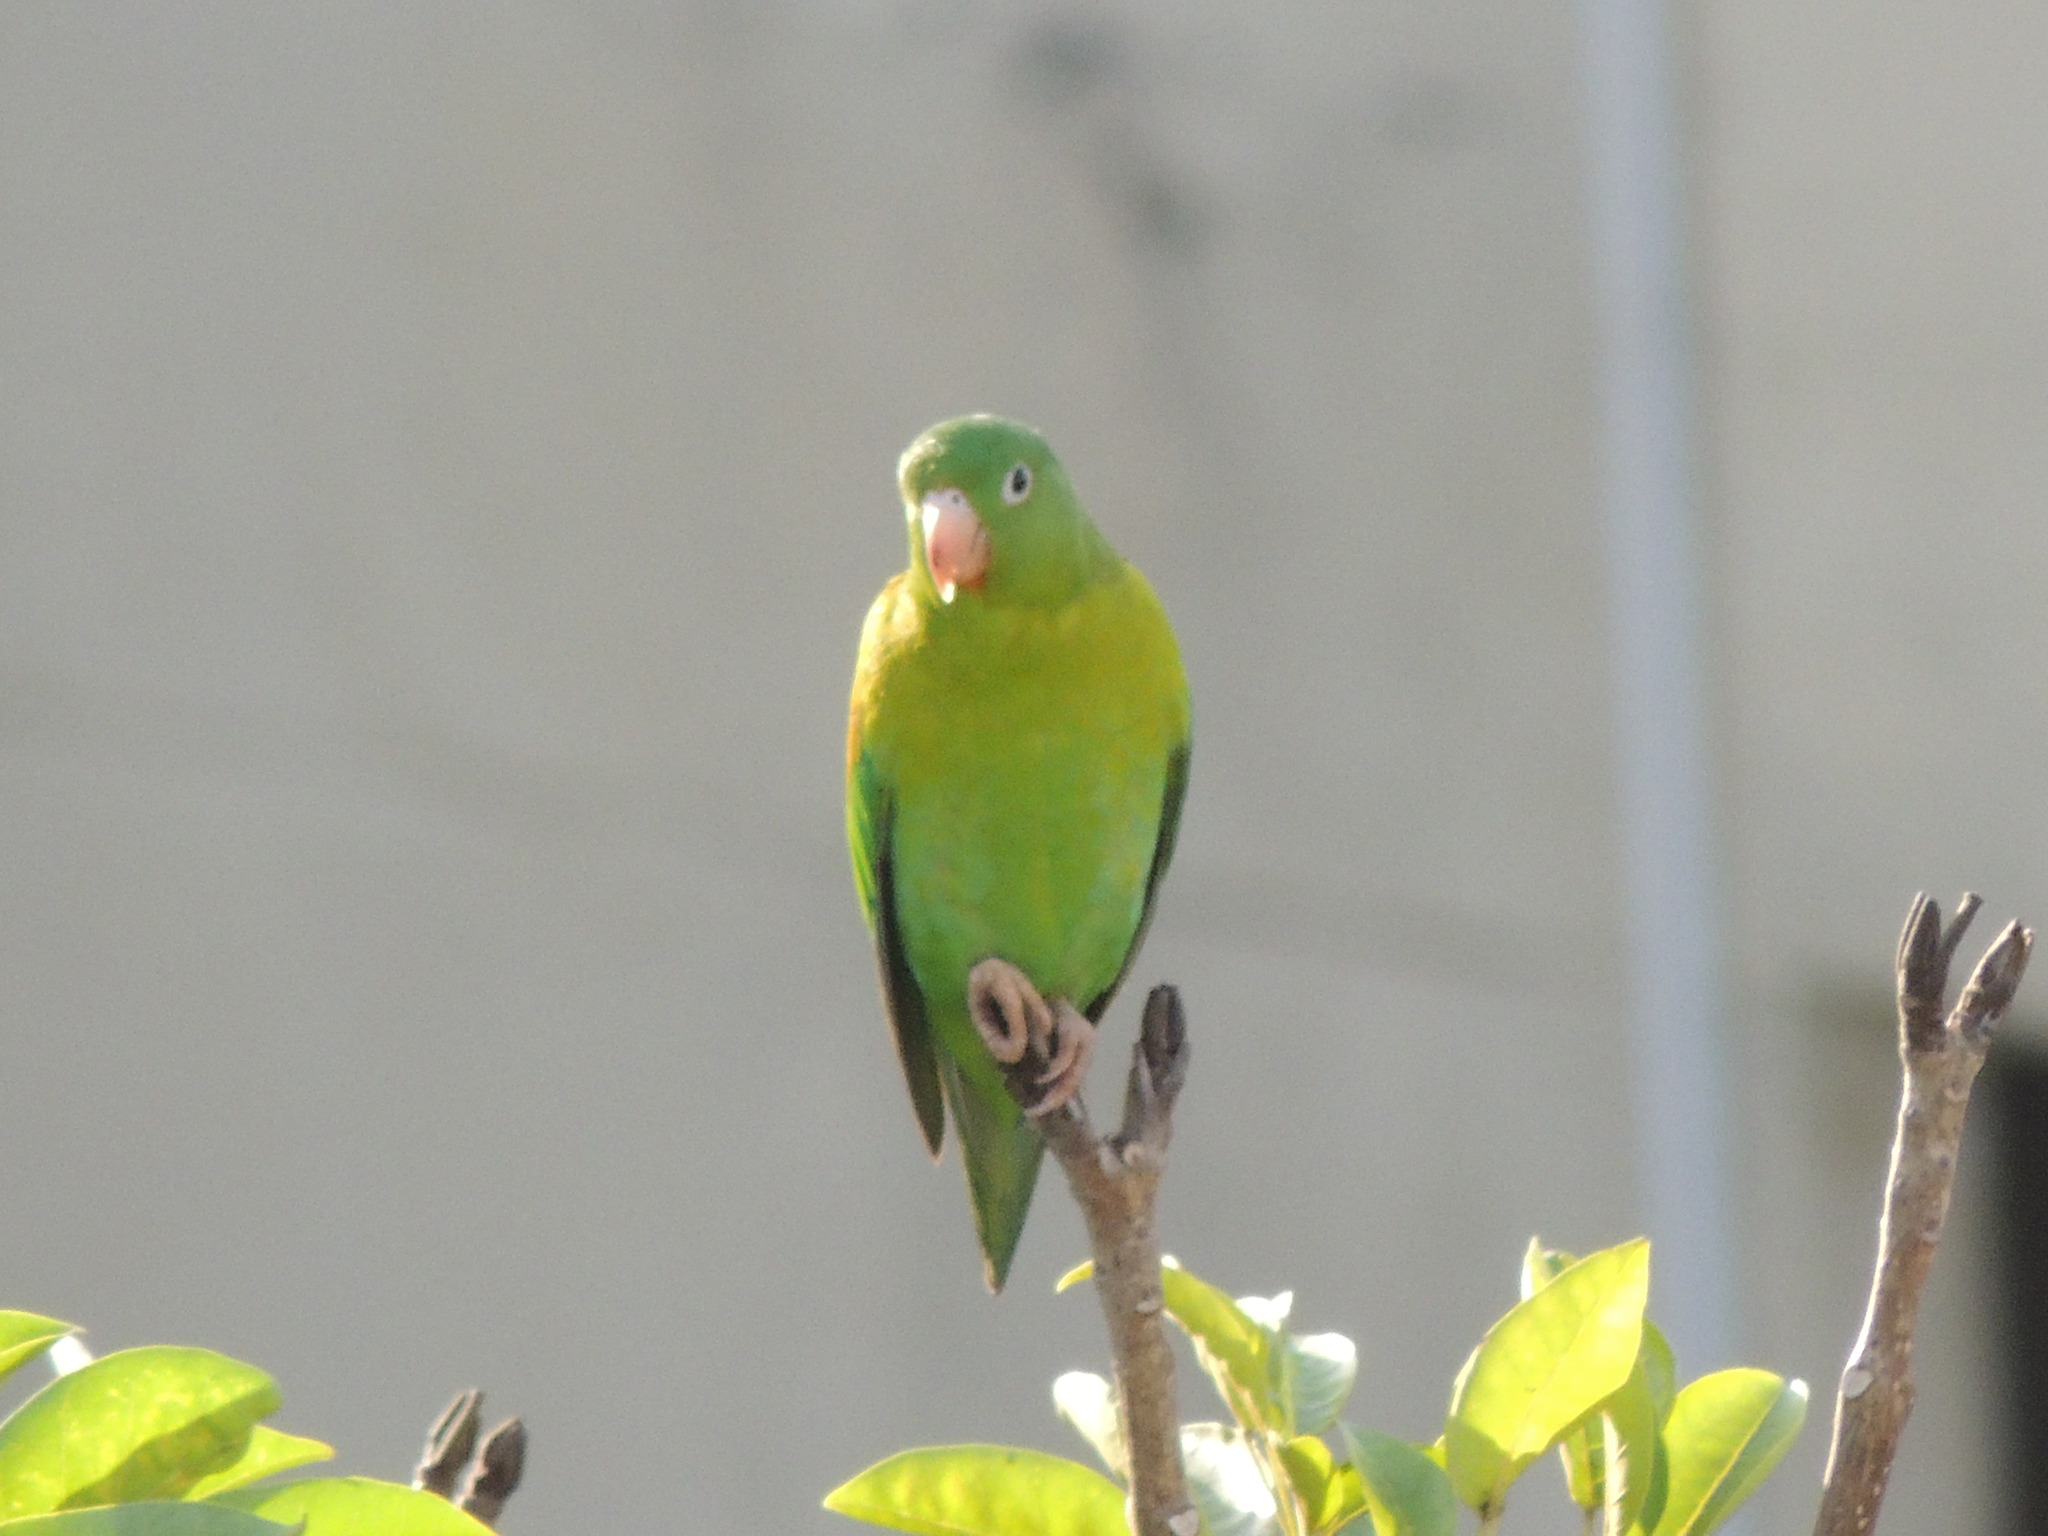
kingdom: Animalia
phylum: Chordata
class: Aves
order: Psittaciformes
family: Psittacidae
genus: Brotogeris
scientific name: Brotogeris jugularis
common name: Orange-chinned parakeet
